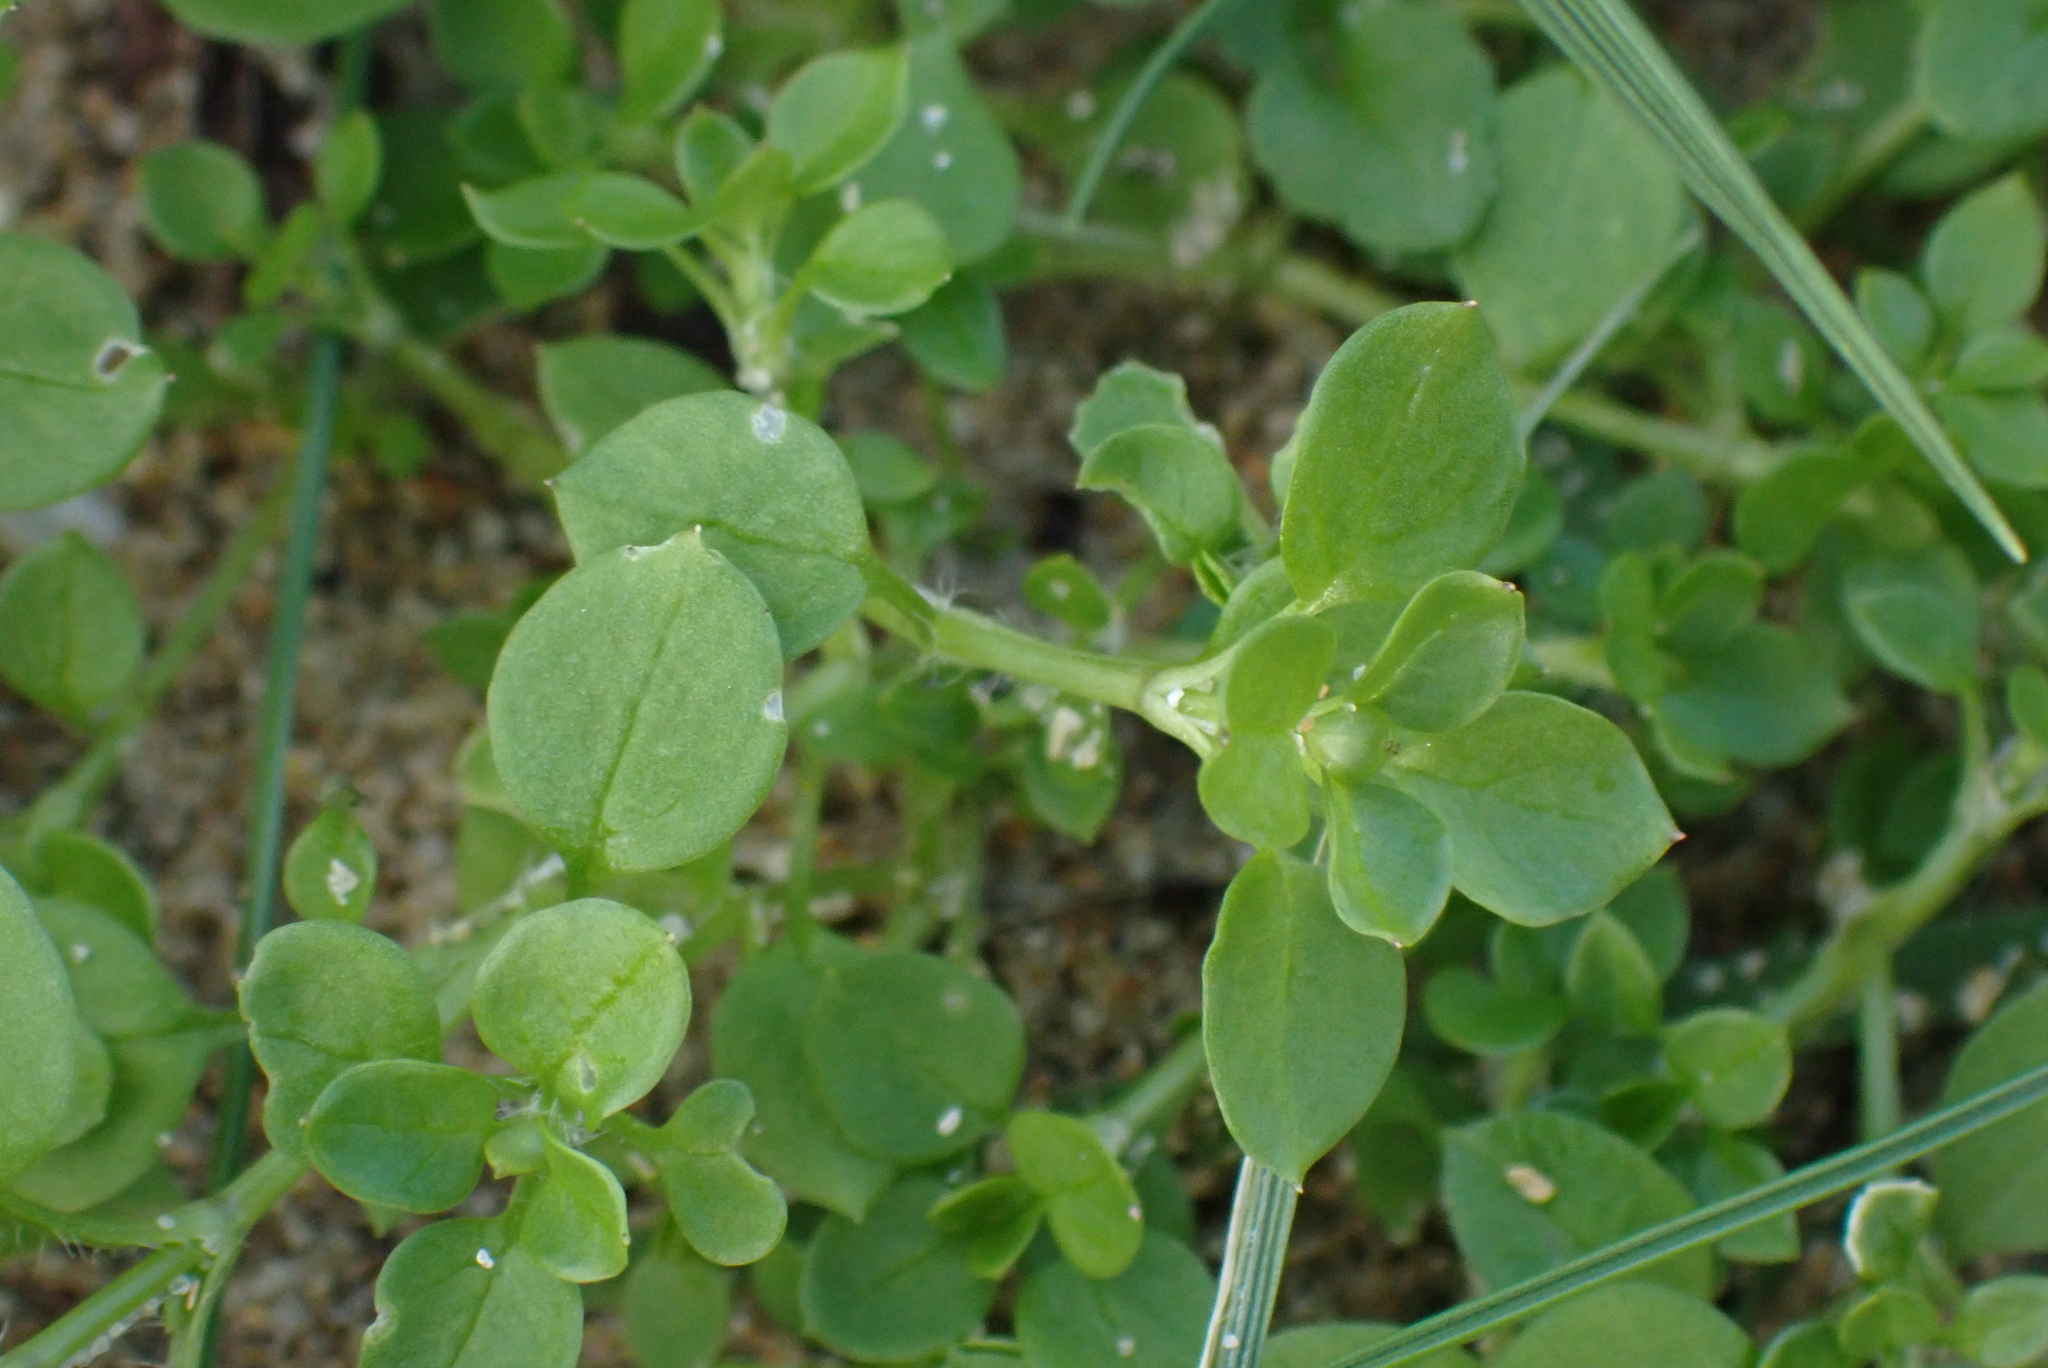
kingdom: Plantae
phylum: Tracheophyta
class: Magnoliopsida
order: Caryophyllales
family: Caryophyllaceae
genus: Stellaria
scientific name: Stellaria media
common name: Common chickweed
